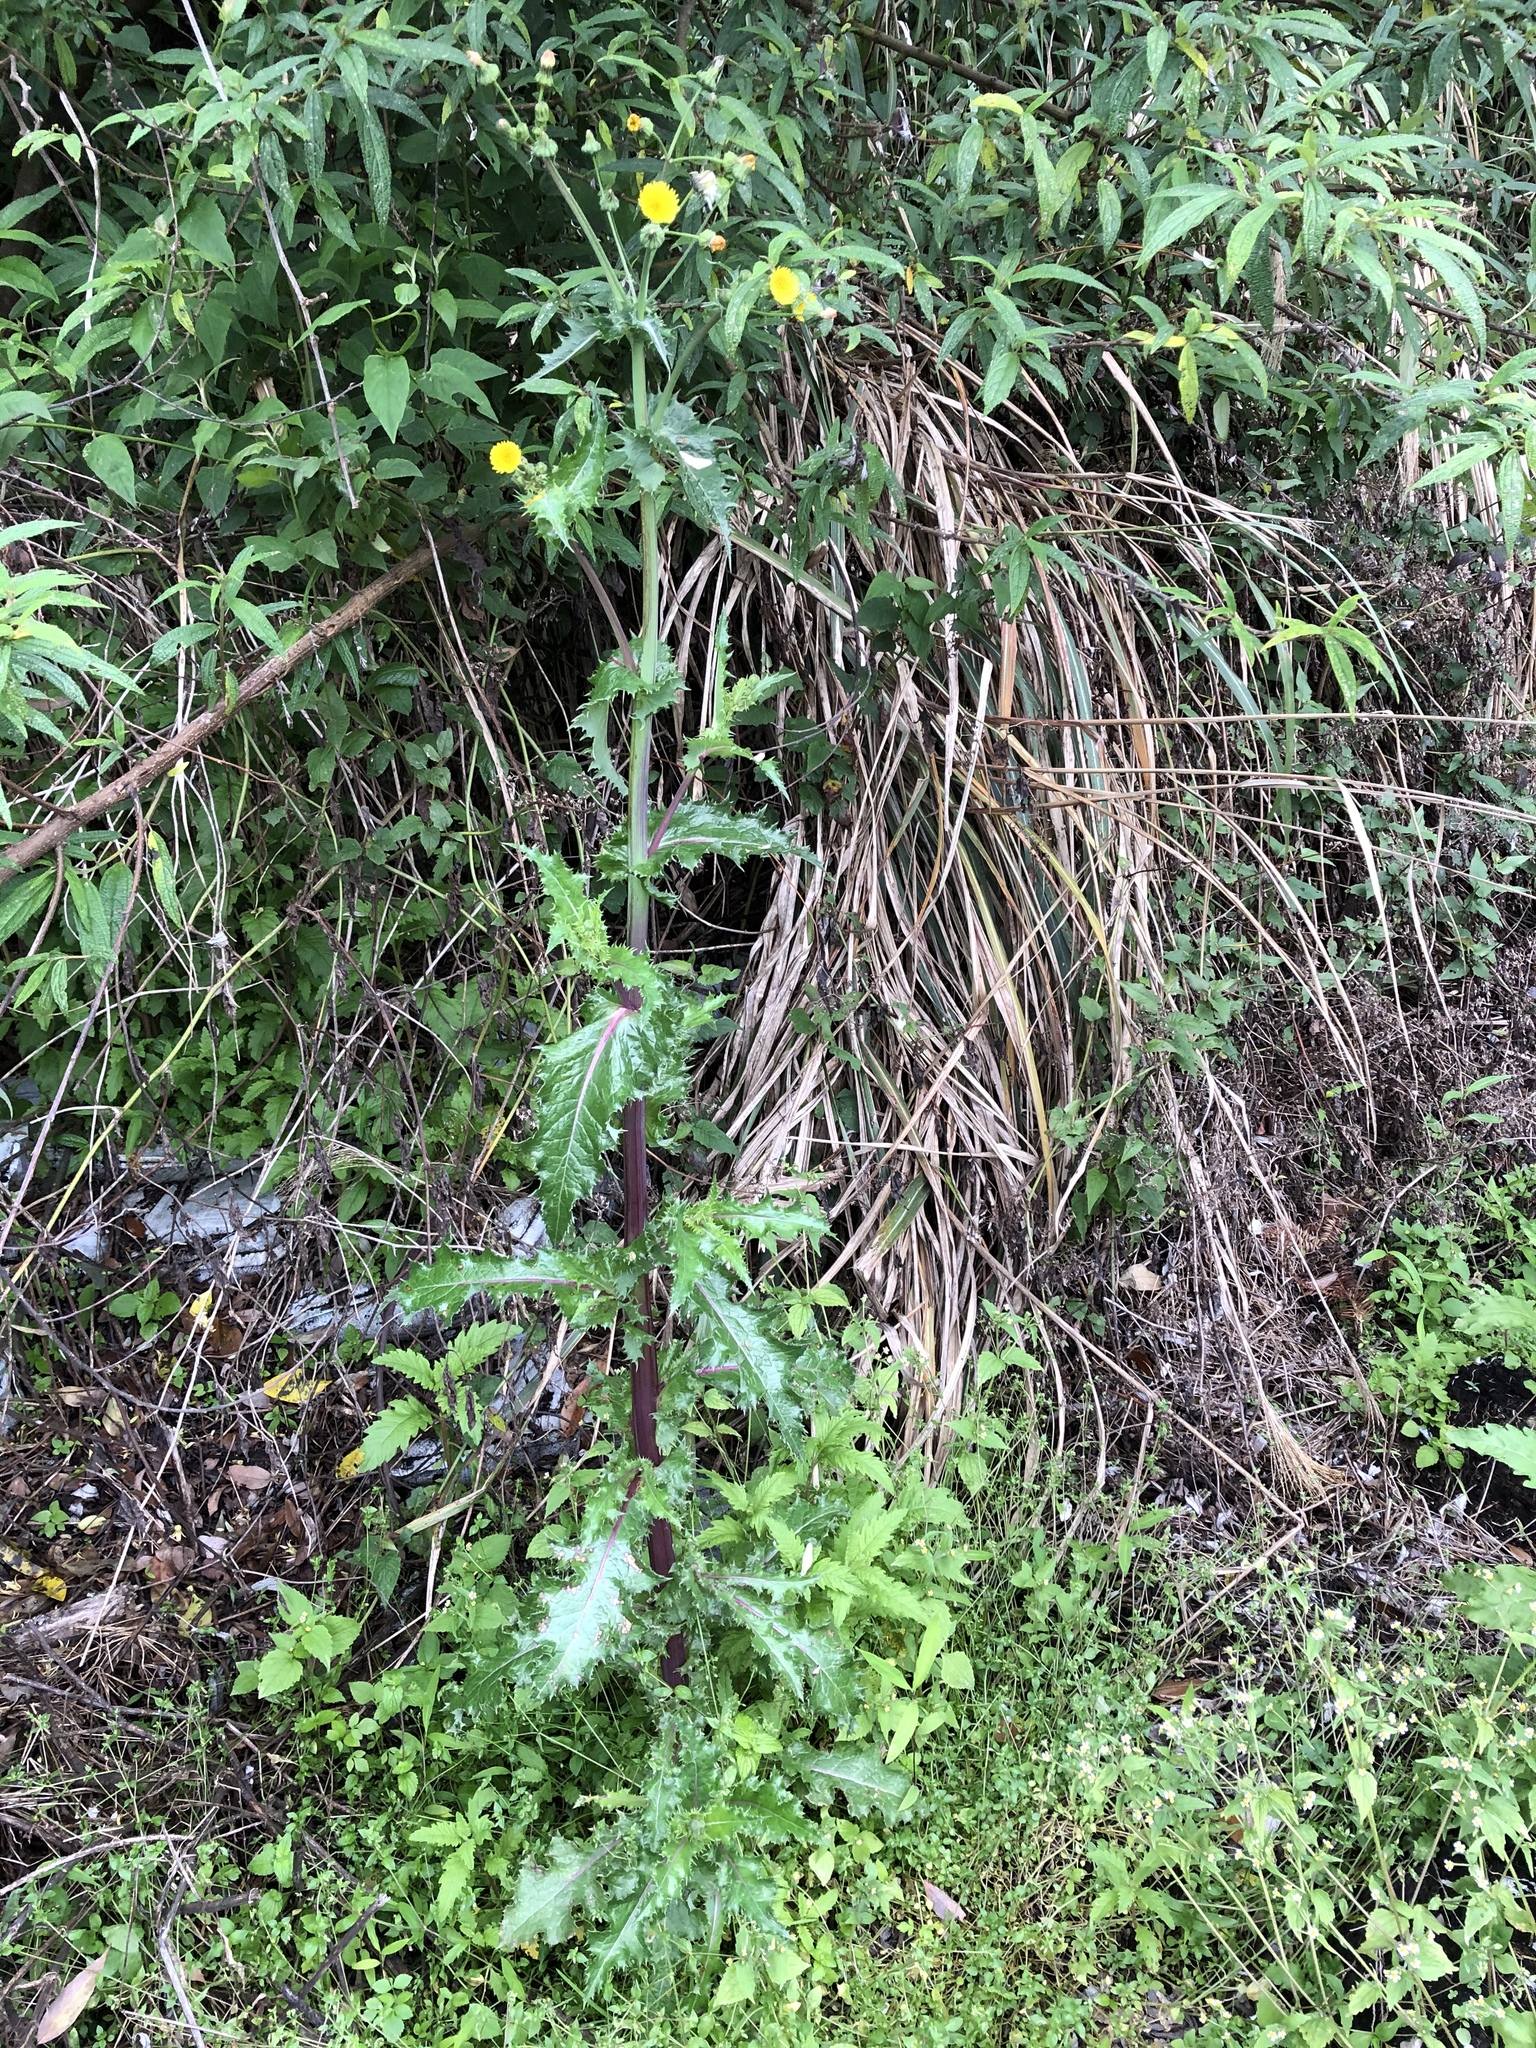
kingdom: Plantae
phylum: Tracheophyta
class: Magnoliopsida
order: Asterales
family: Asteraceae
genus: Sonchus
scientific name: Sonchus asper
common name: Prickly sow-thistle
